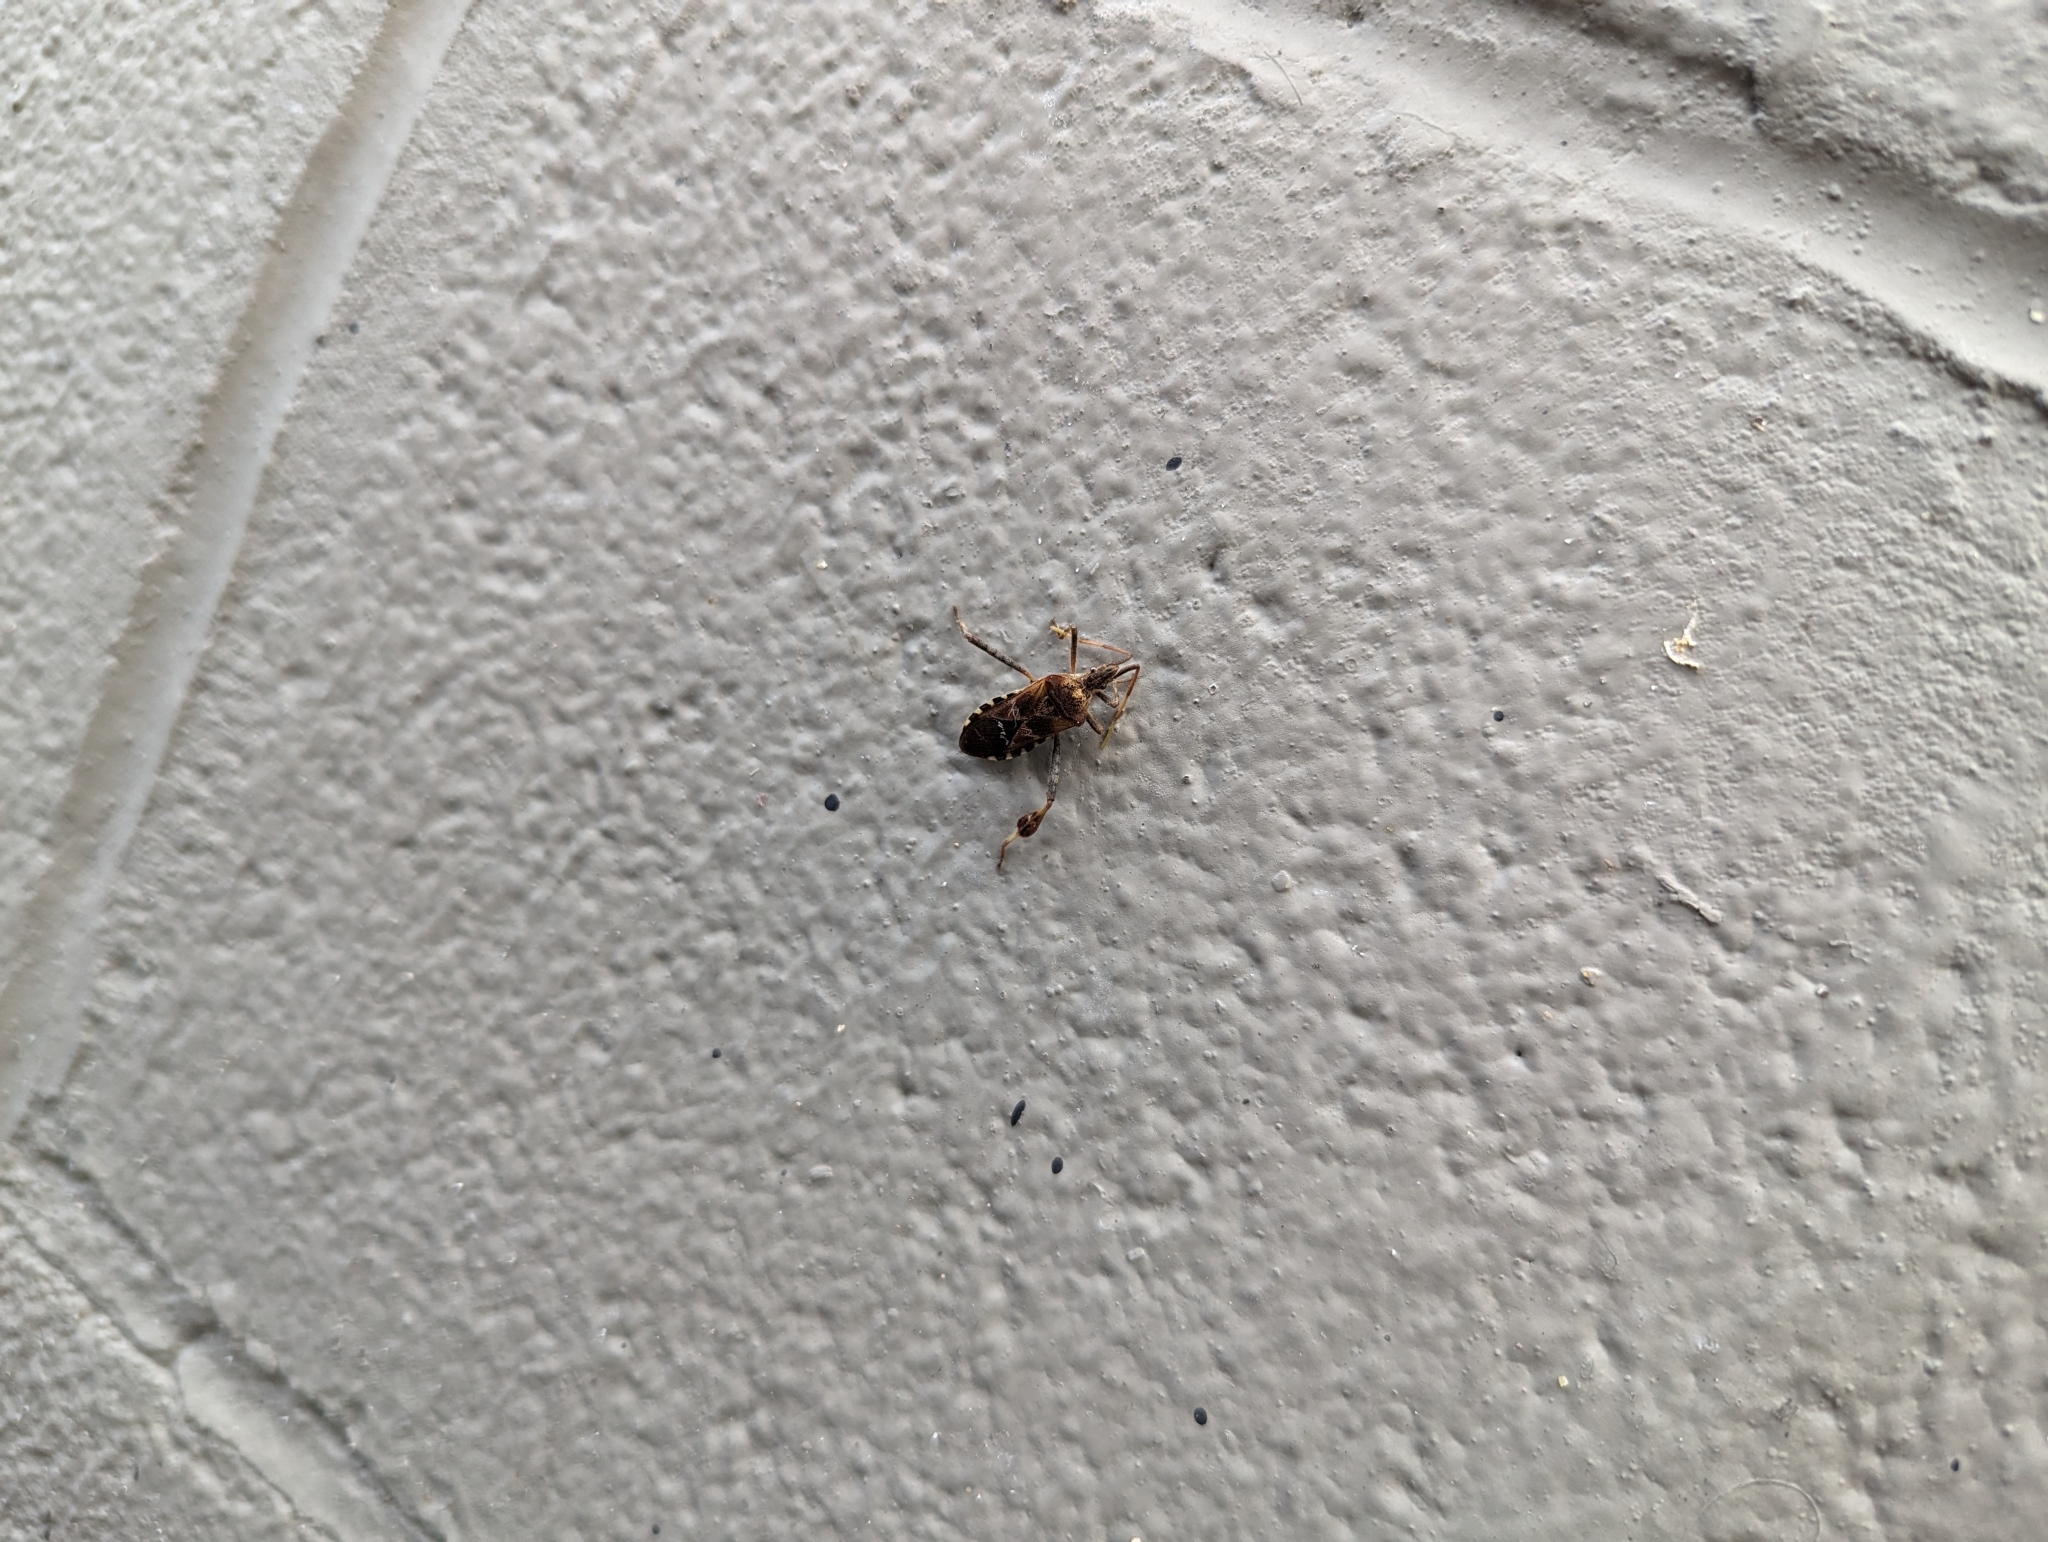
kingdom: Animalia
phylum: Arthropoda
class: Insecta
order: Hemiptera
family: Coreidae
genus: Leptoglossus
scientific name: Leptoglossus occidentalis
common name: Western conifer-seed bug
